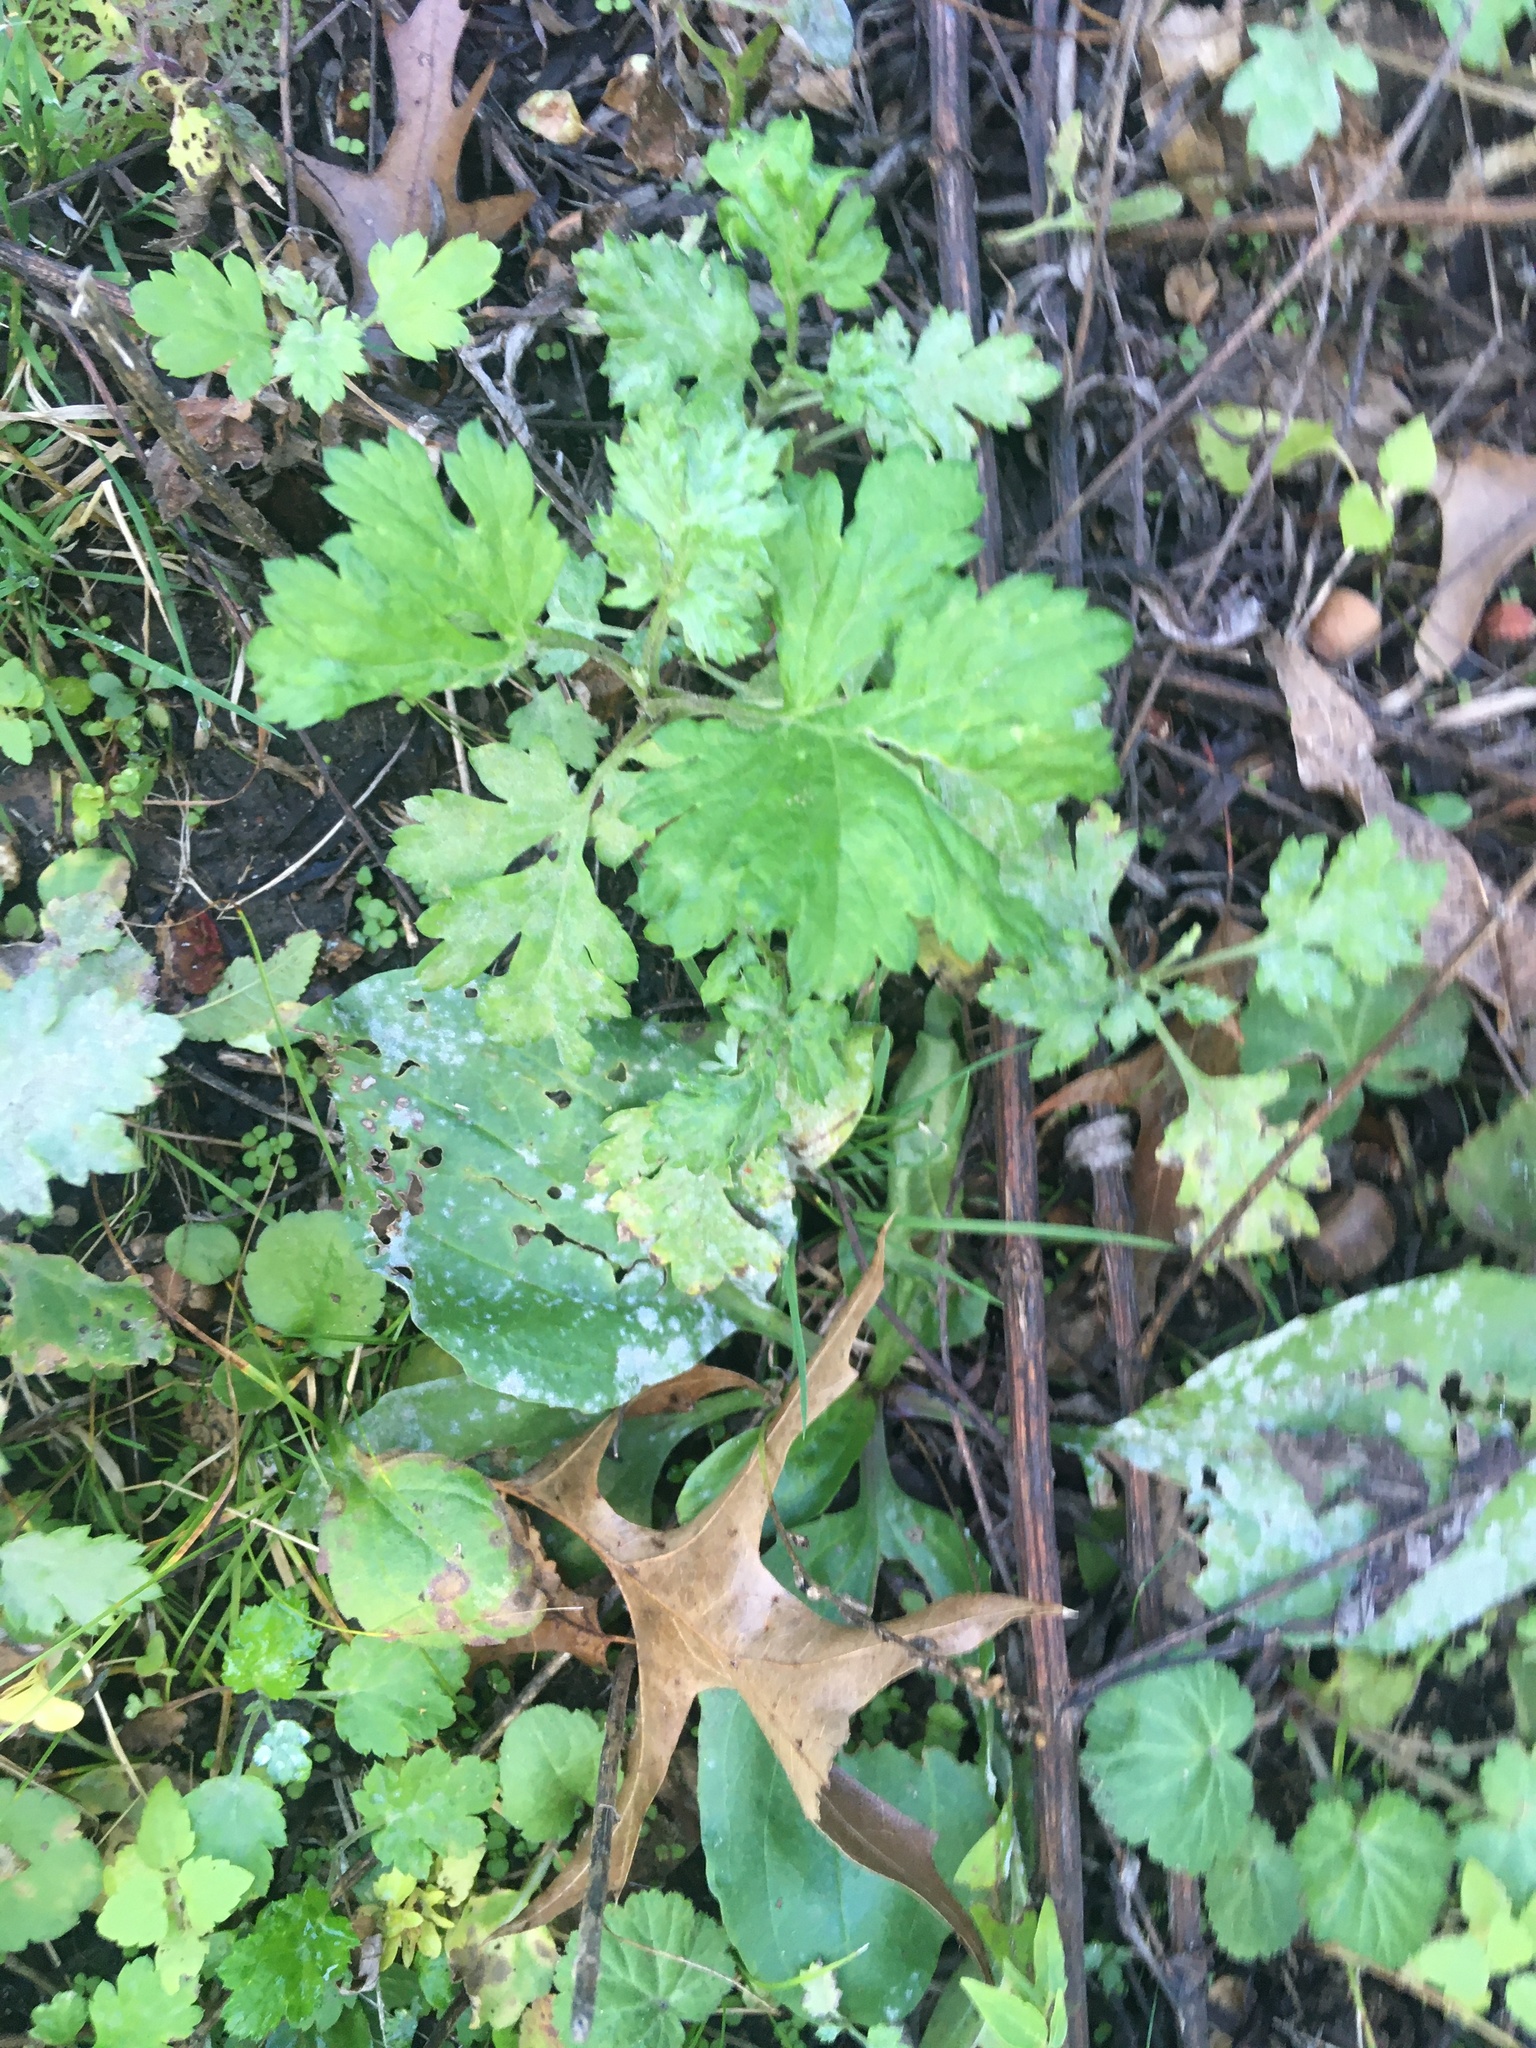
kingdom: Plantae
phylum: Tracheophyta
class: Magnoliopsida
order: Asterales
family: Asteraceae
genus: Artemisia
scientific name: Artemisia vulgaris
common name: Mugwort
